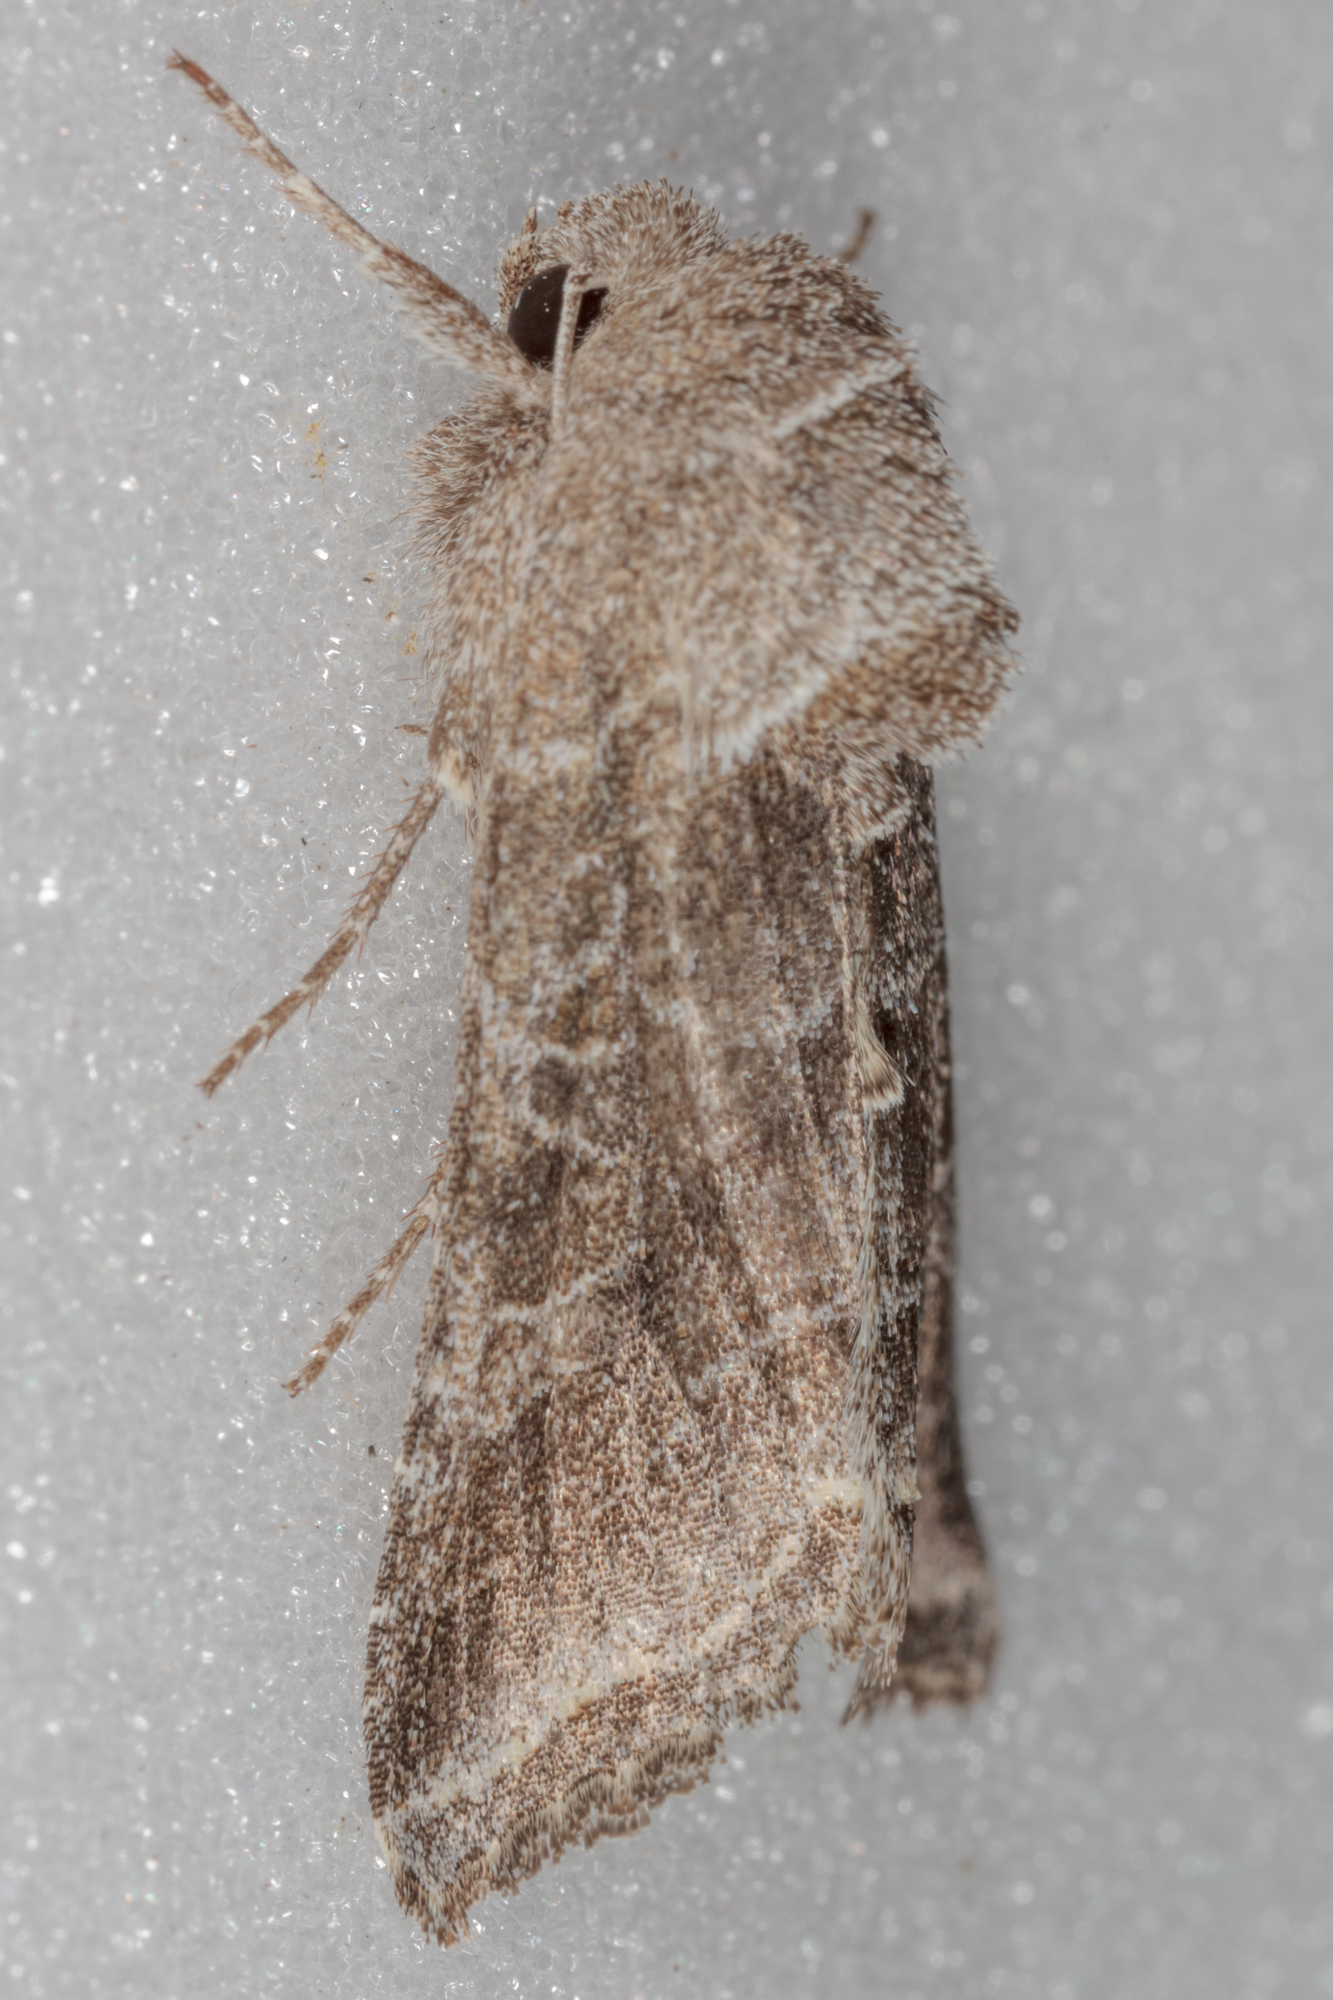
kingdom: Animalia
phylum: Arthropoda
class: Insecta
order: Lepidoptera
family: Noctuidae
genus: Lacinipolia
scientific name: Lacinipolia erecta
